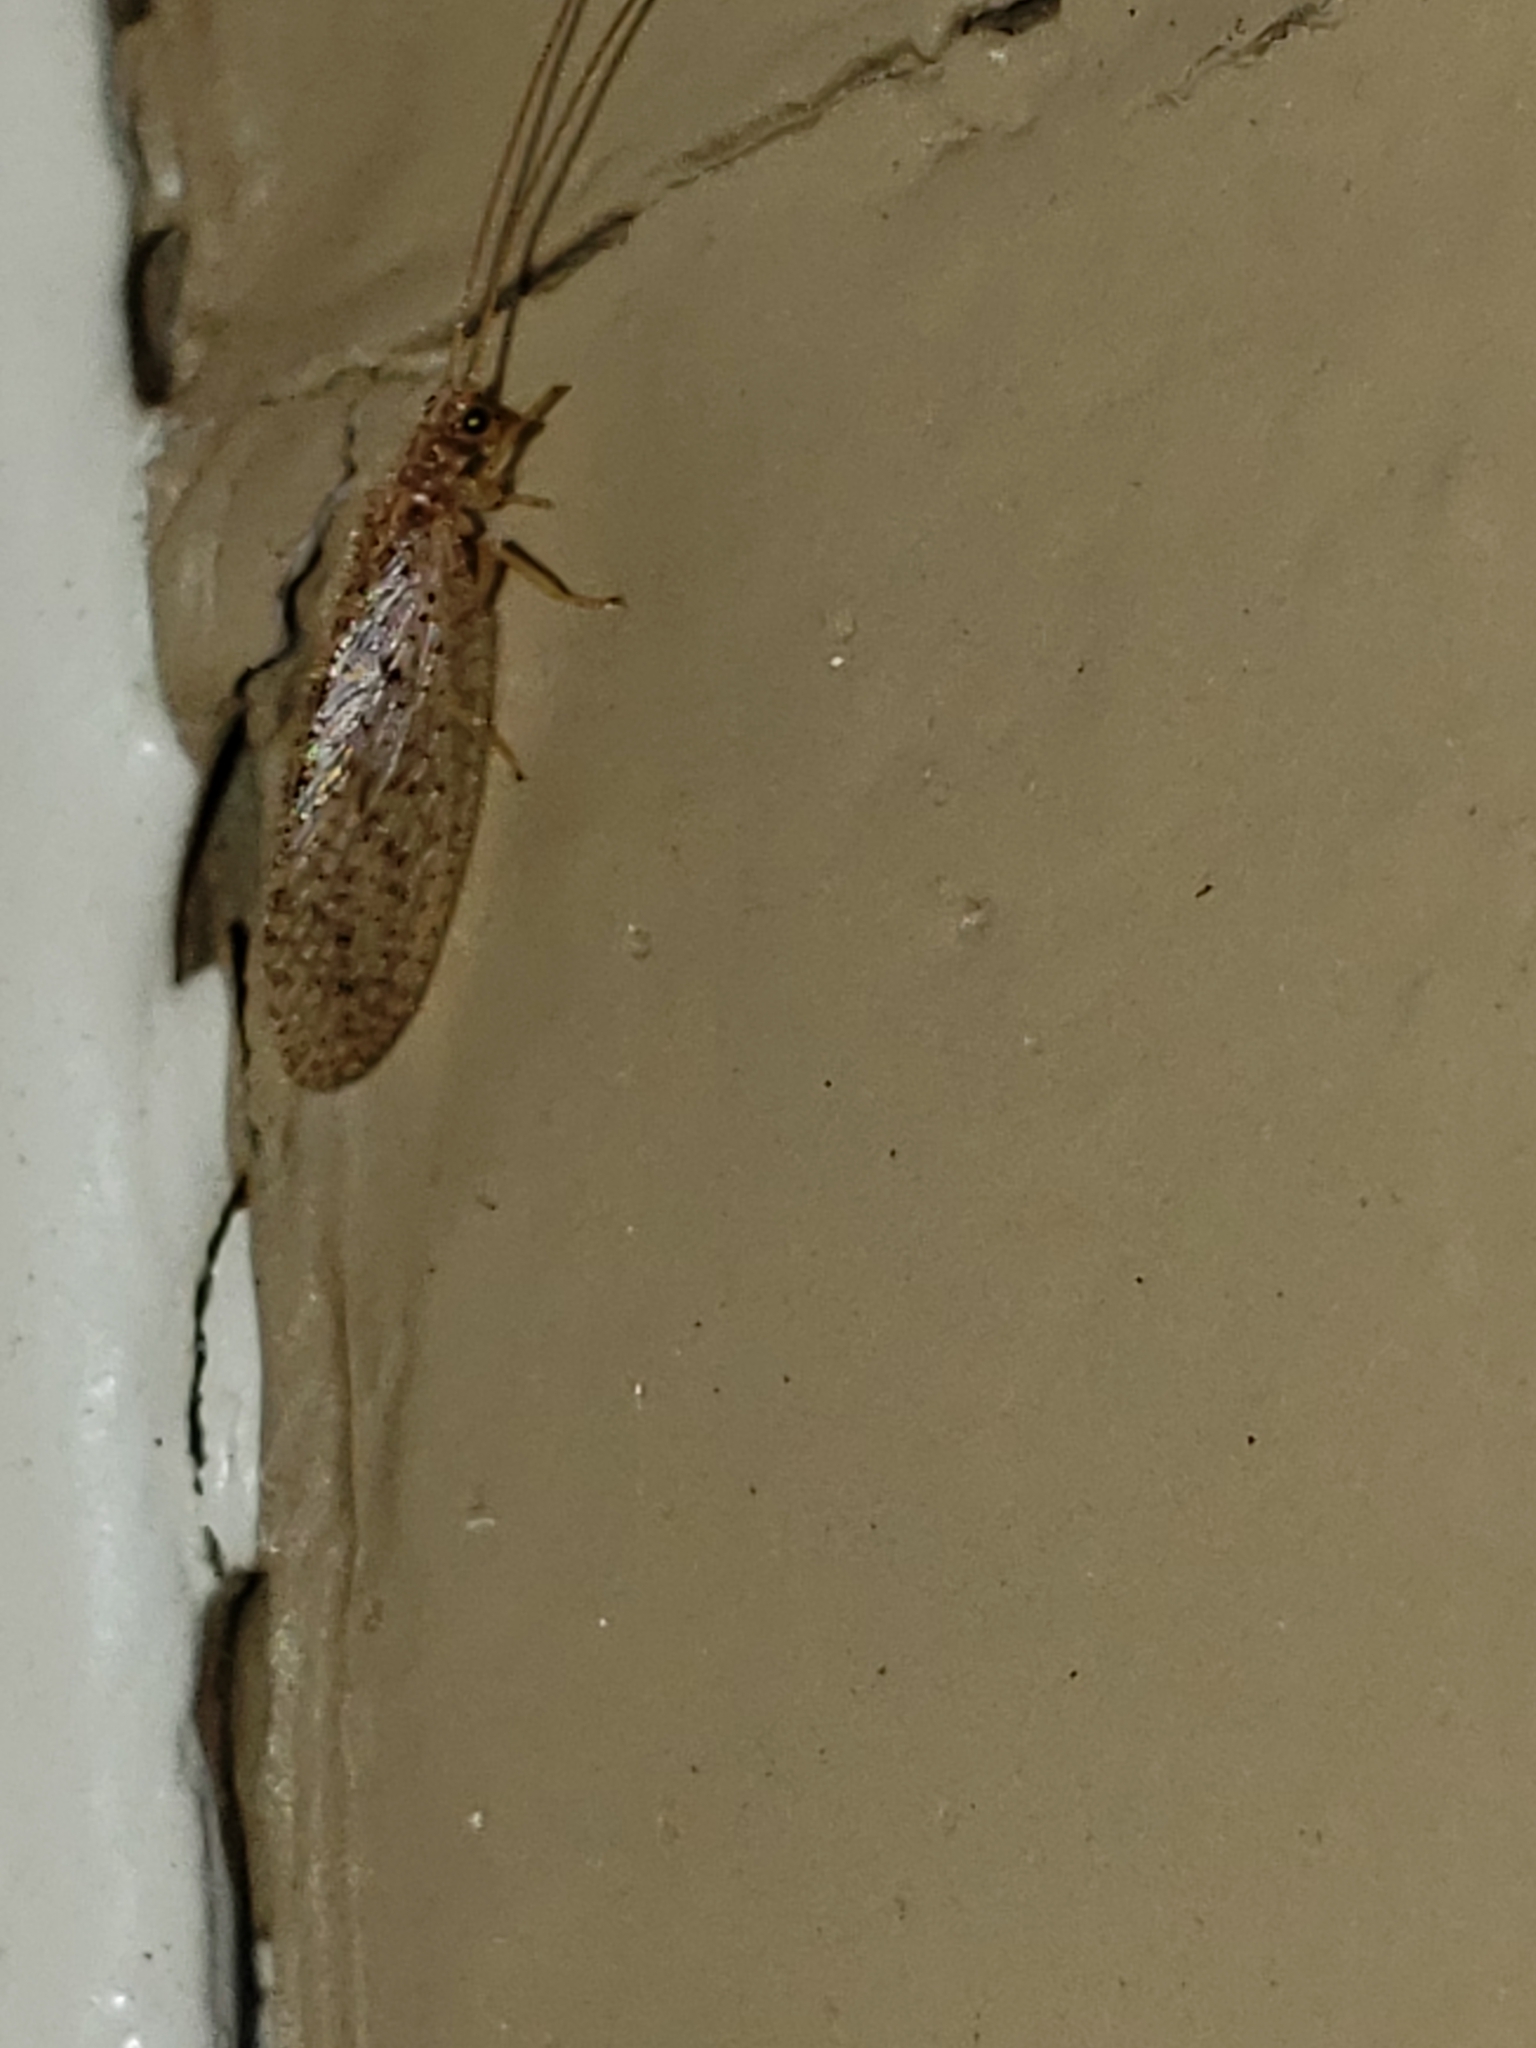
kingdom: Animalia
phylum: Arthropoda
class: Insecta
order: Neuroptera
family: Hemerobiidae
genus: Micromus
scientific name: Micromus subanticus
